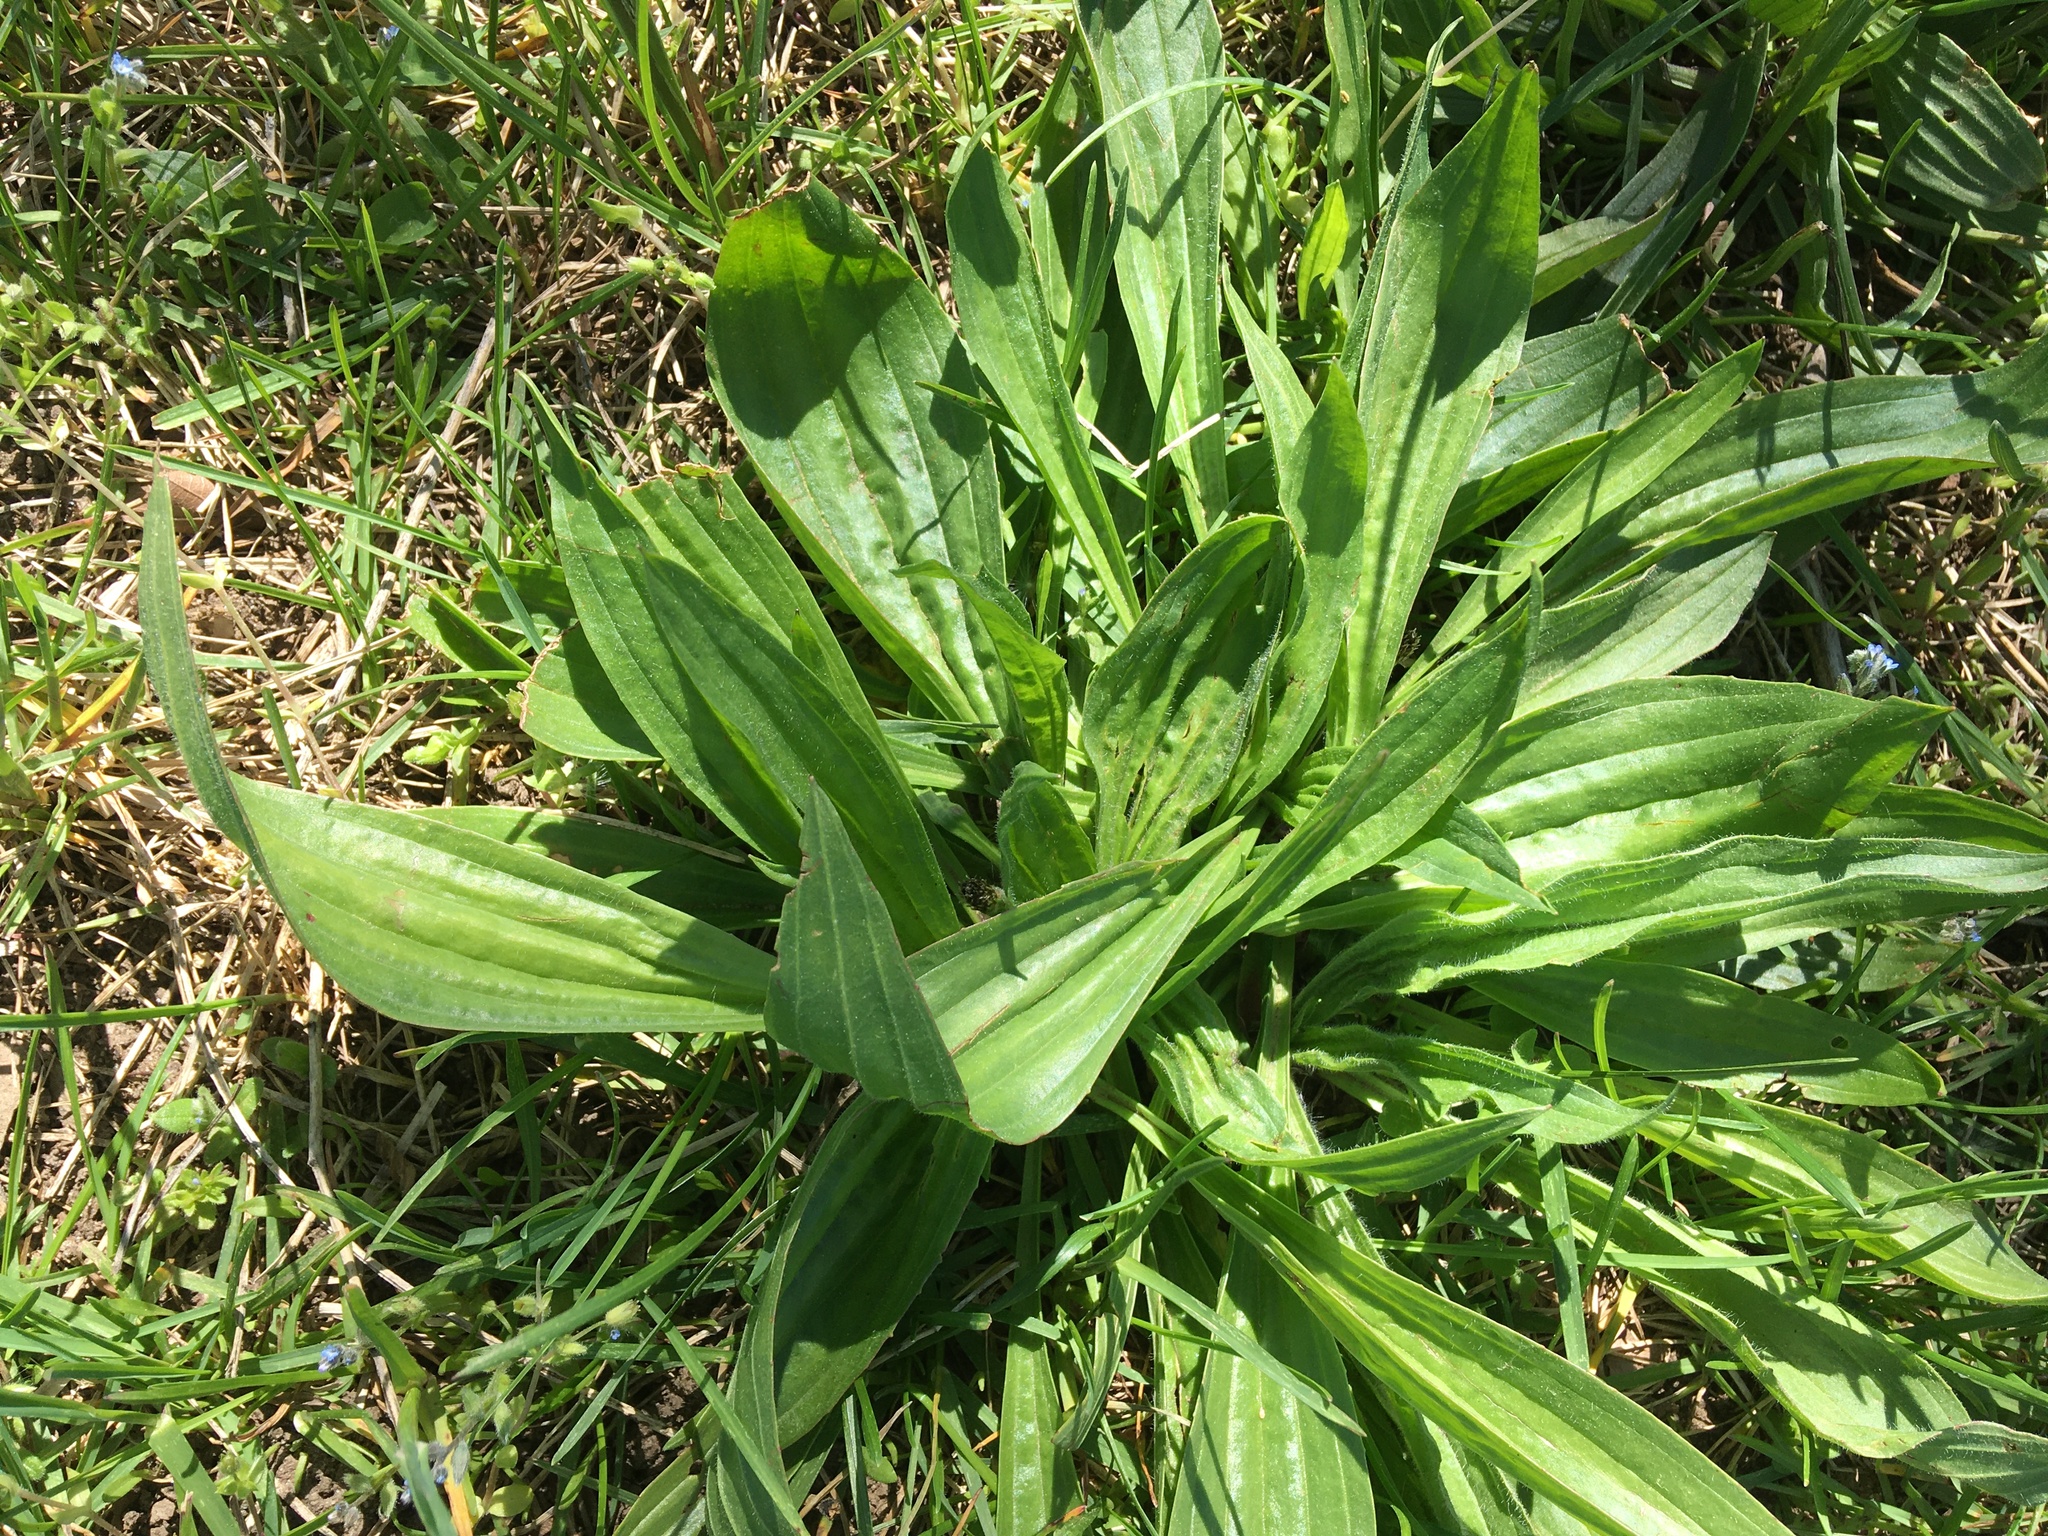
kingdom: Plantae
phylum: Tracheophyta
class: Magnoliopsida
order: Lamiales
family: Plantaginaceae
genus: Plantago
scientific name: Plantago lanceolata
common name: Ribwort plantain
